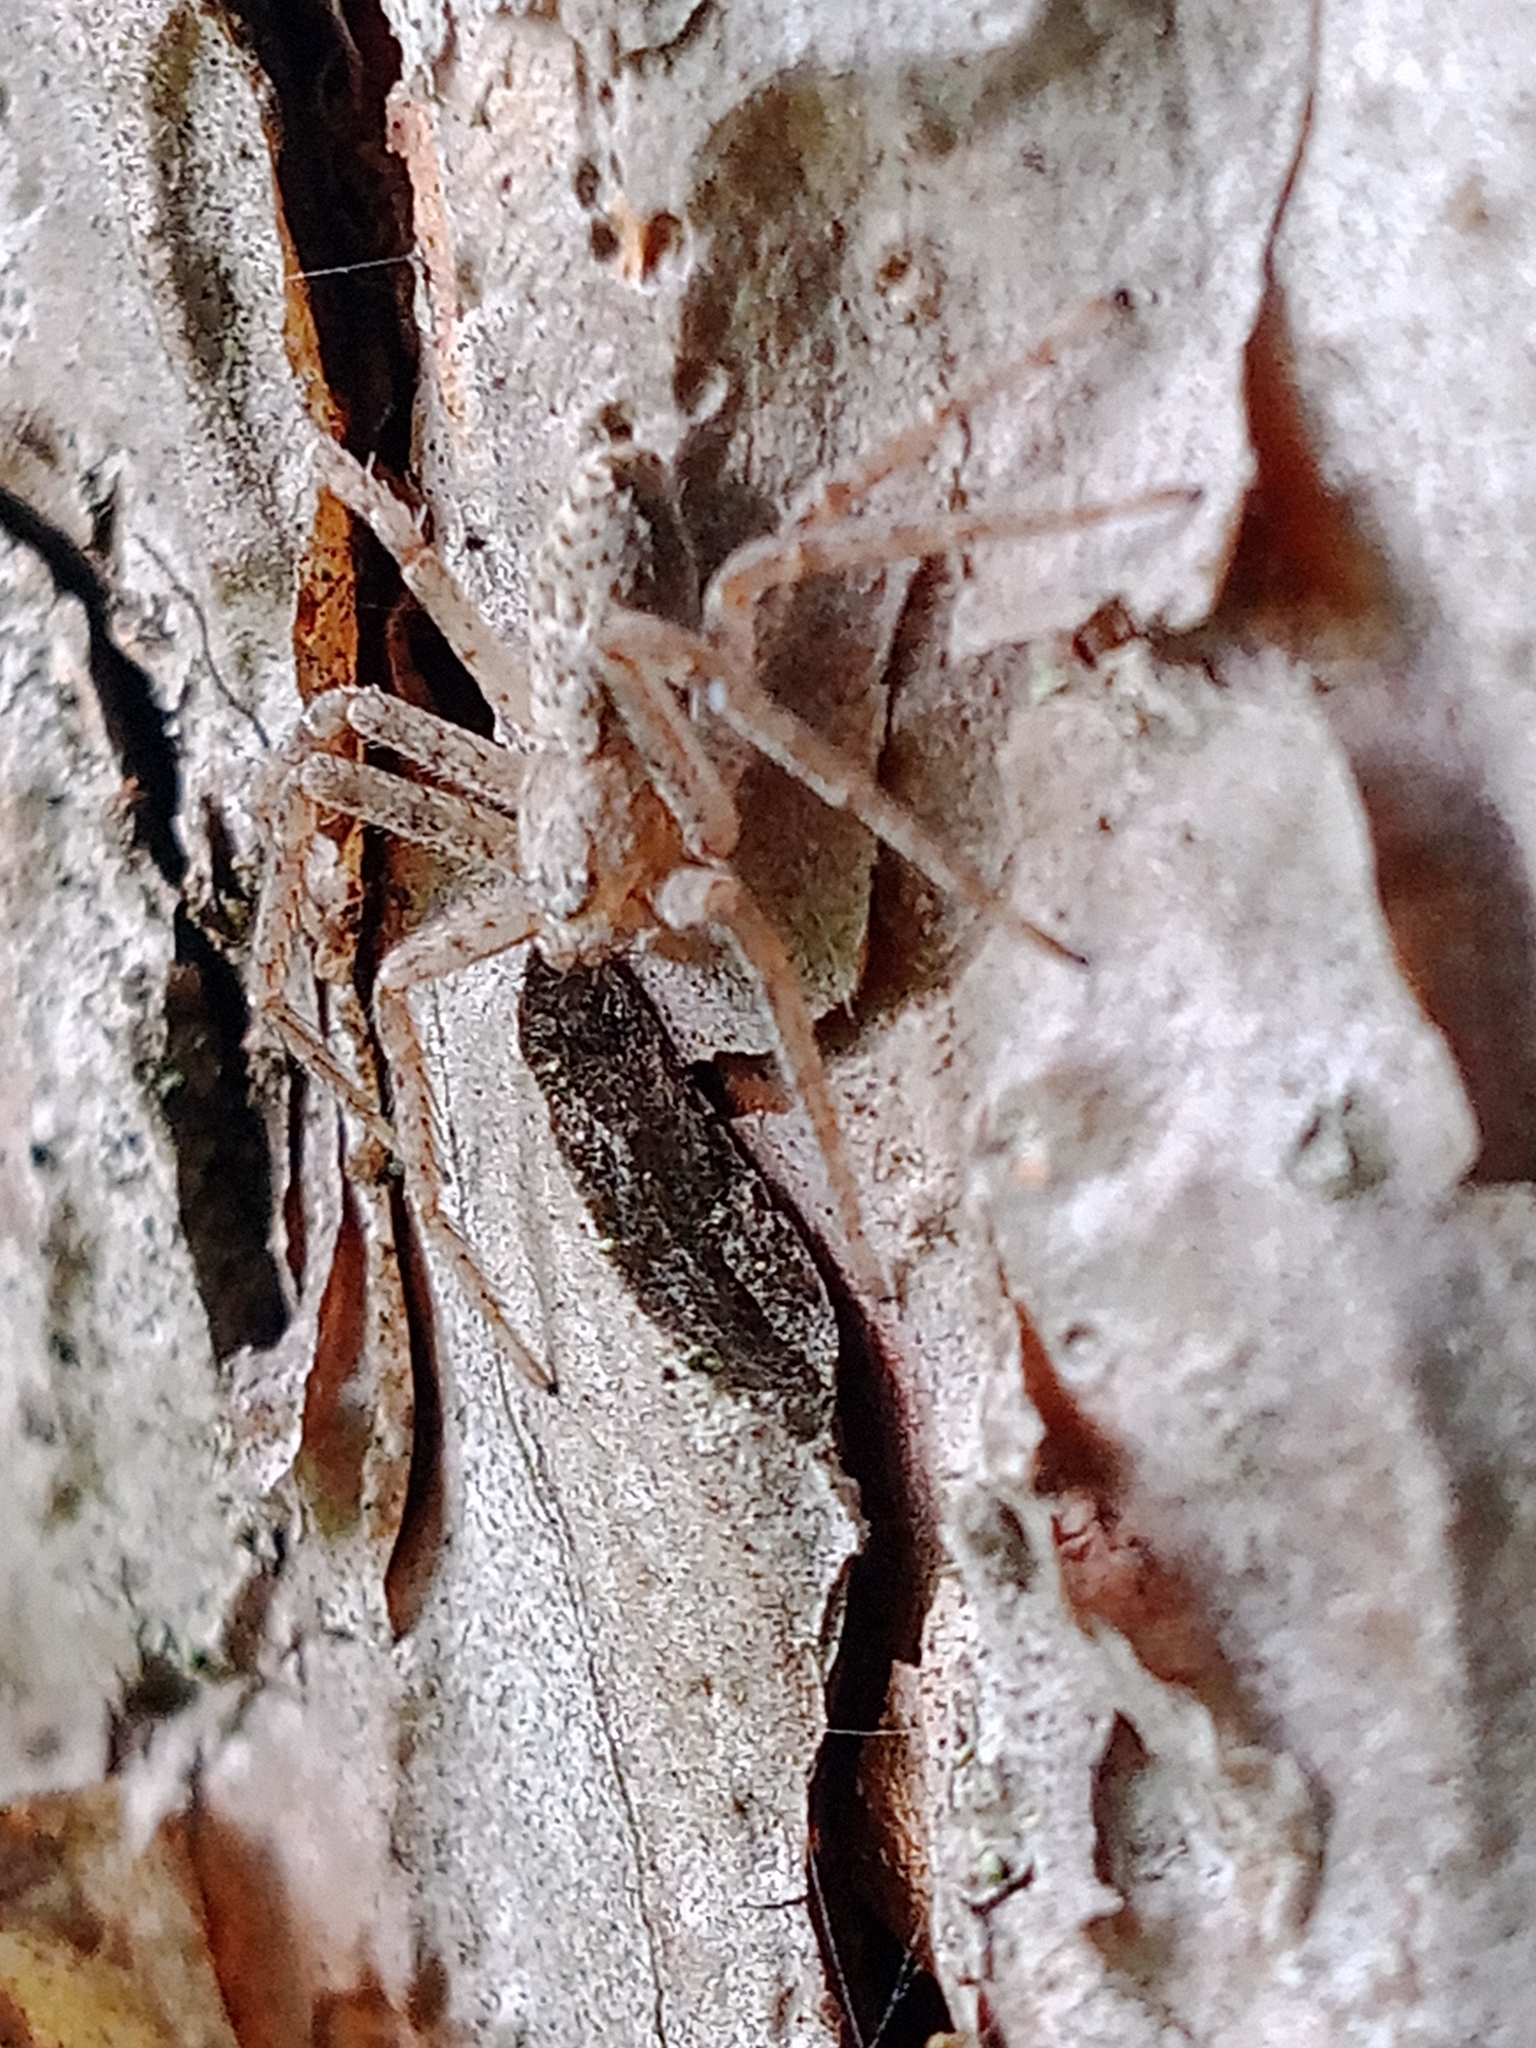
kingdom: Animalia
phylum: Arthropoda
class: Arachnida
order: Araneae
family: Philodromidae
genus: Philodromus
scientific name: Philodromus fuscomarginatus
